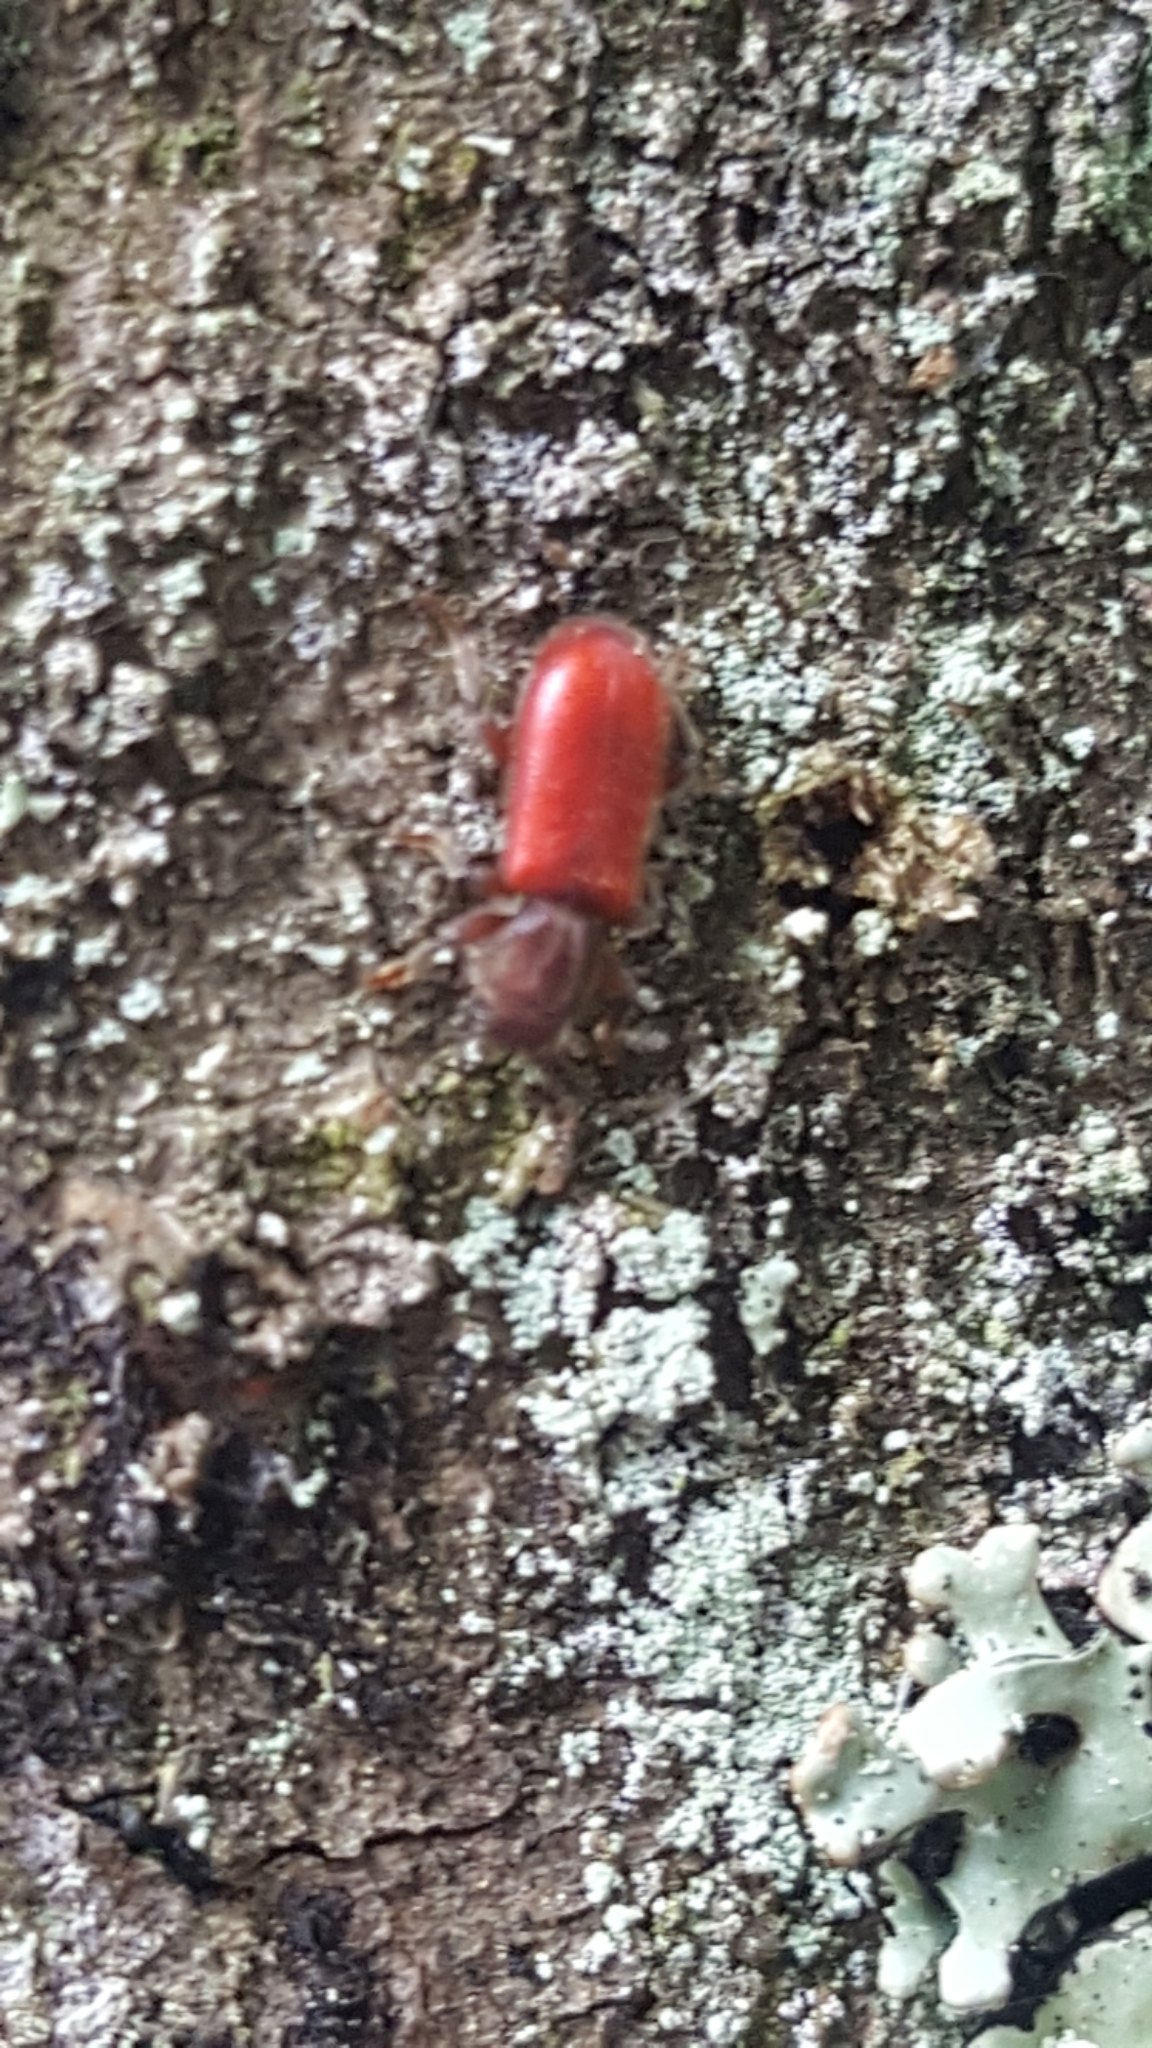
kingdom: Animalia
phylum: Arthropoda
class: Insecta
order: Coleoptera
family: Thanerocleridae
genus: Zenodosus
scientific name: Zenodosus sanguineus
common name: Blood-colored checkered beetle
